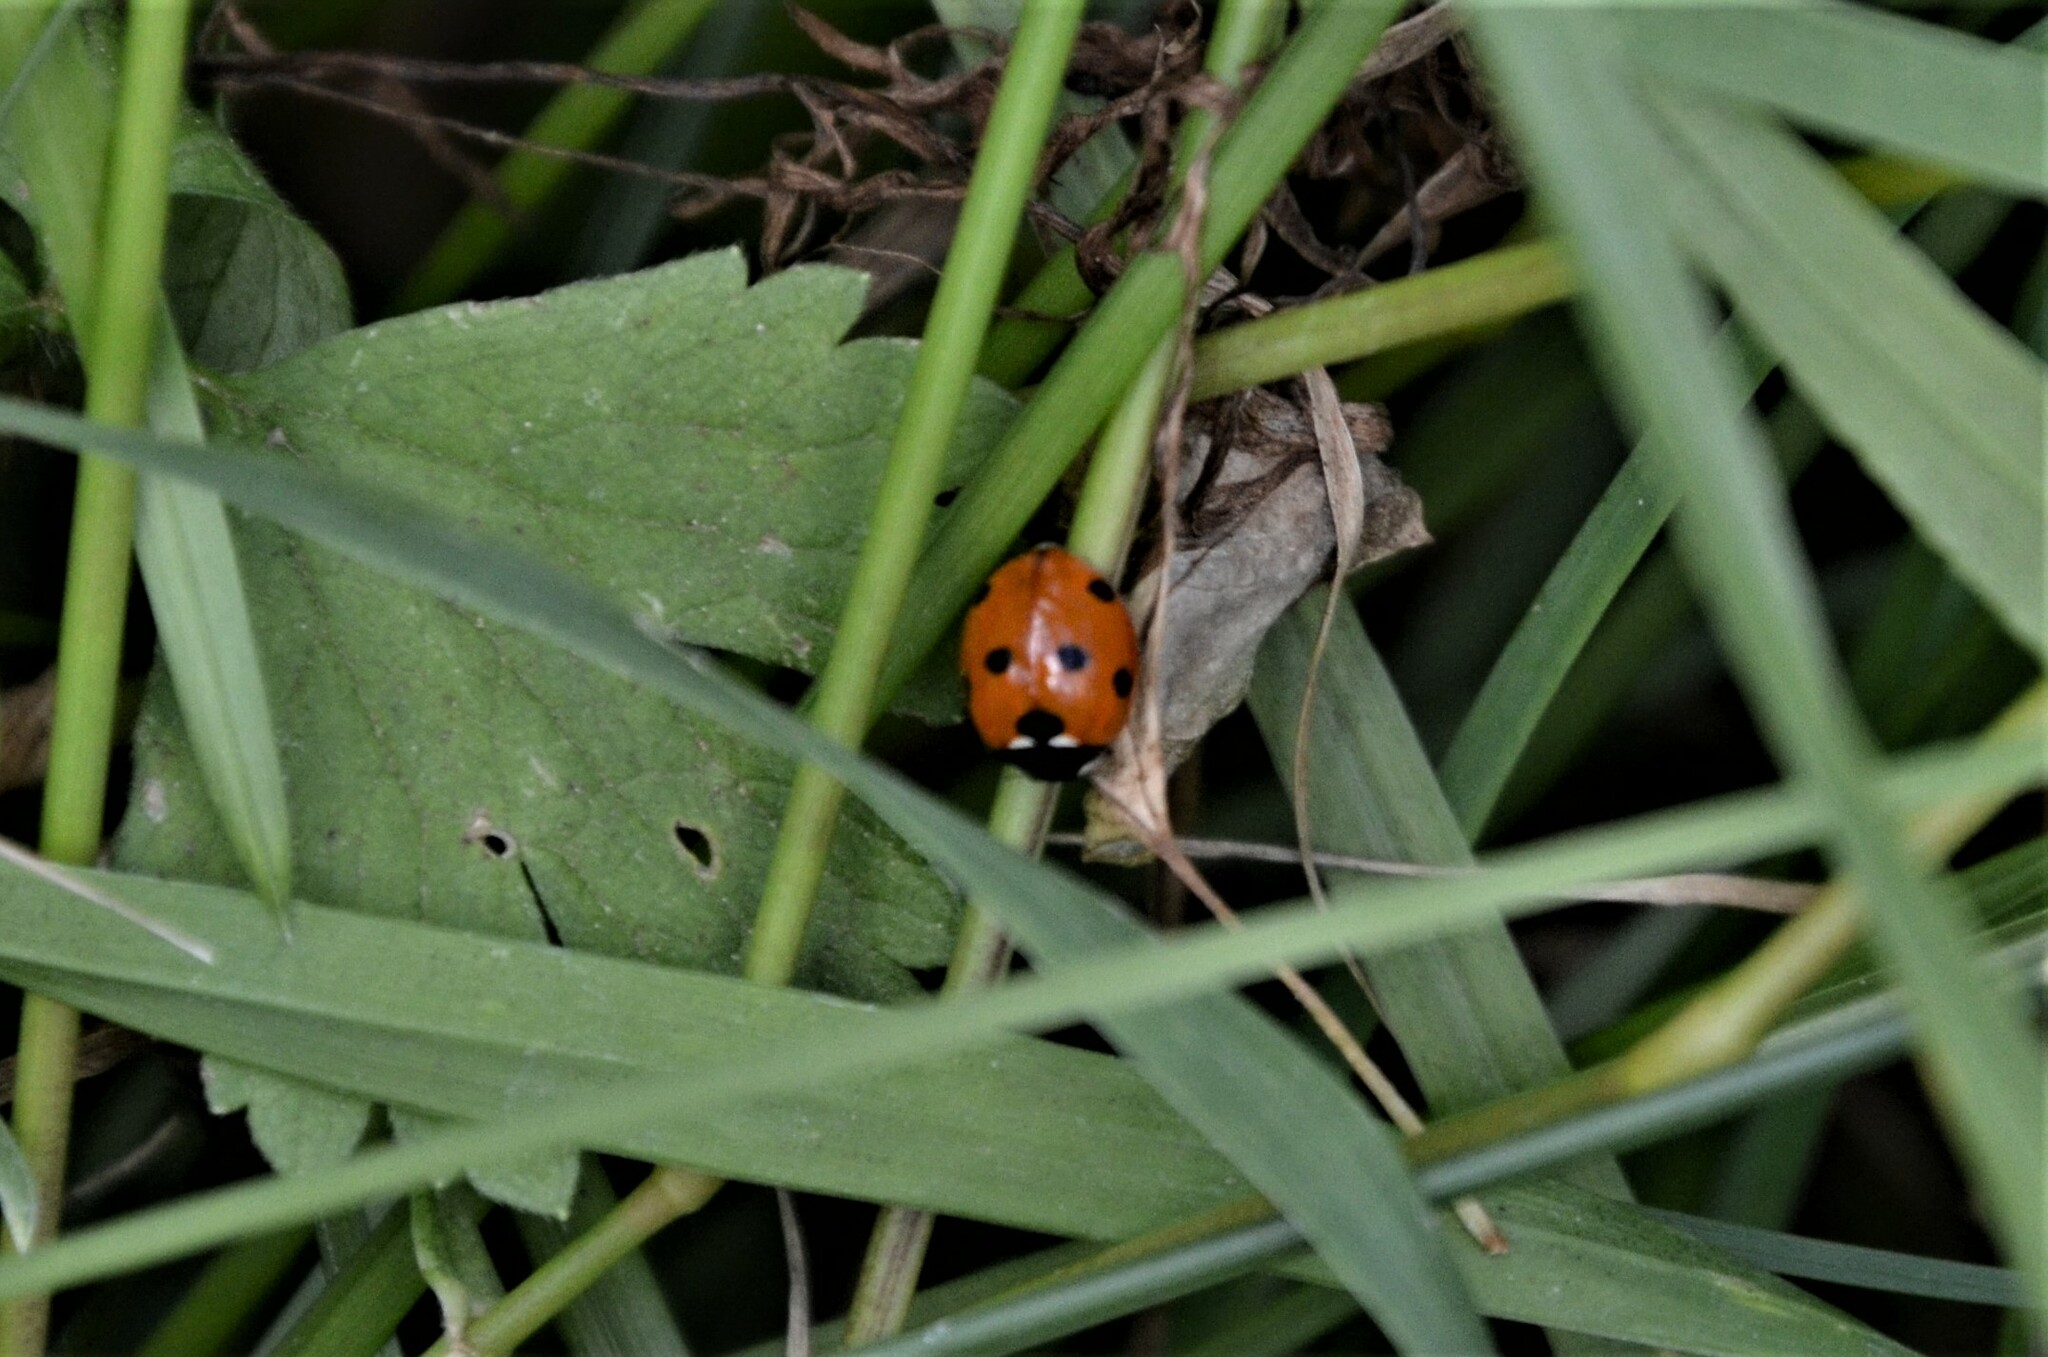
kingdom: Animalia
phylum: Arthropoda
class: Insecta
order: Coleoptera
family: Coccinellidae
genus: Coccinella
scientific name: Coccinella septempunctata
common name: Sevenspotted lady beetle
